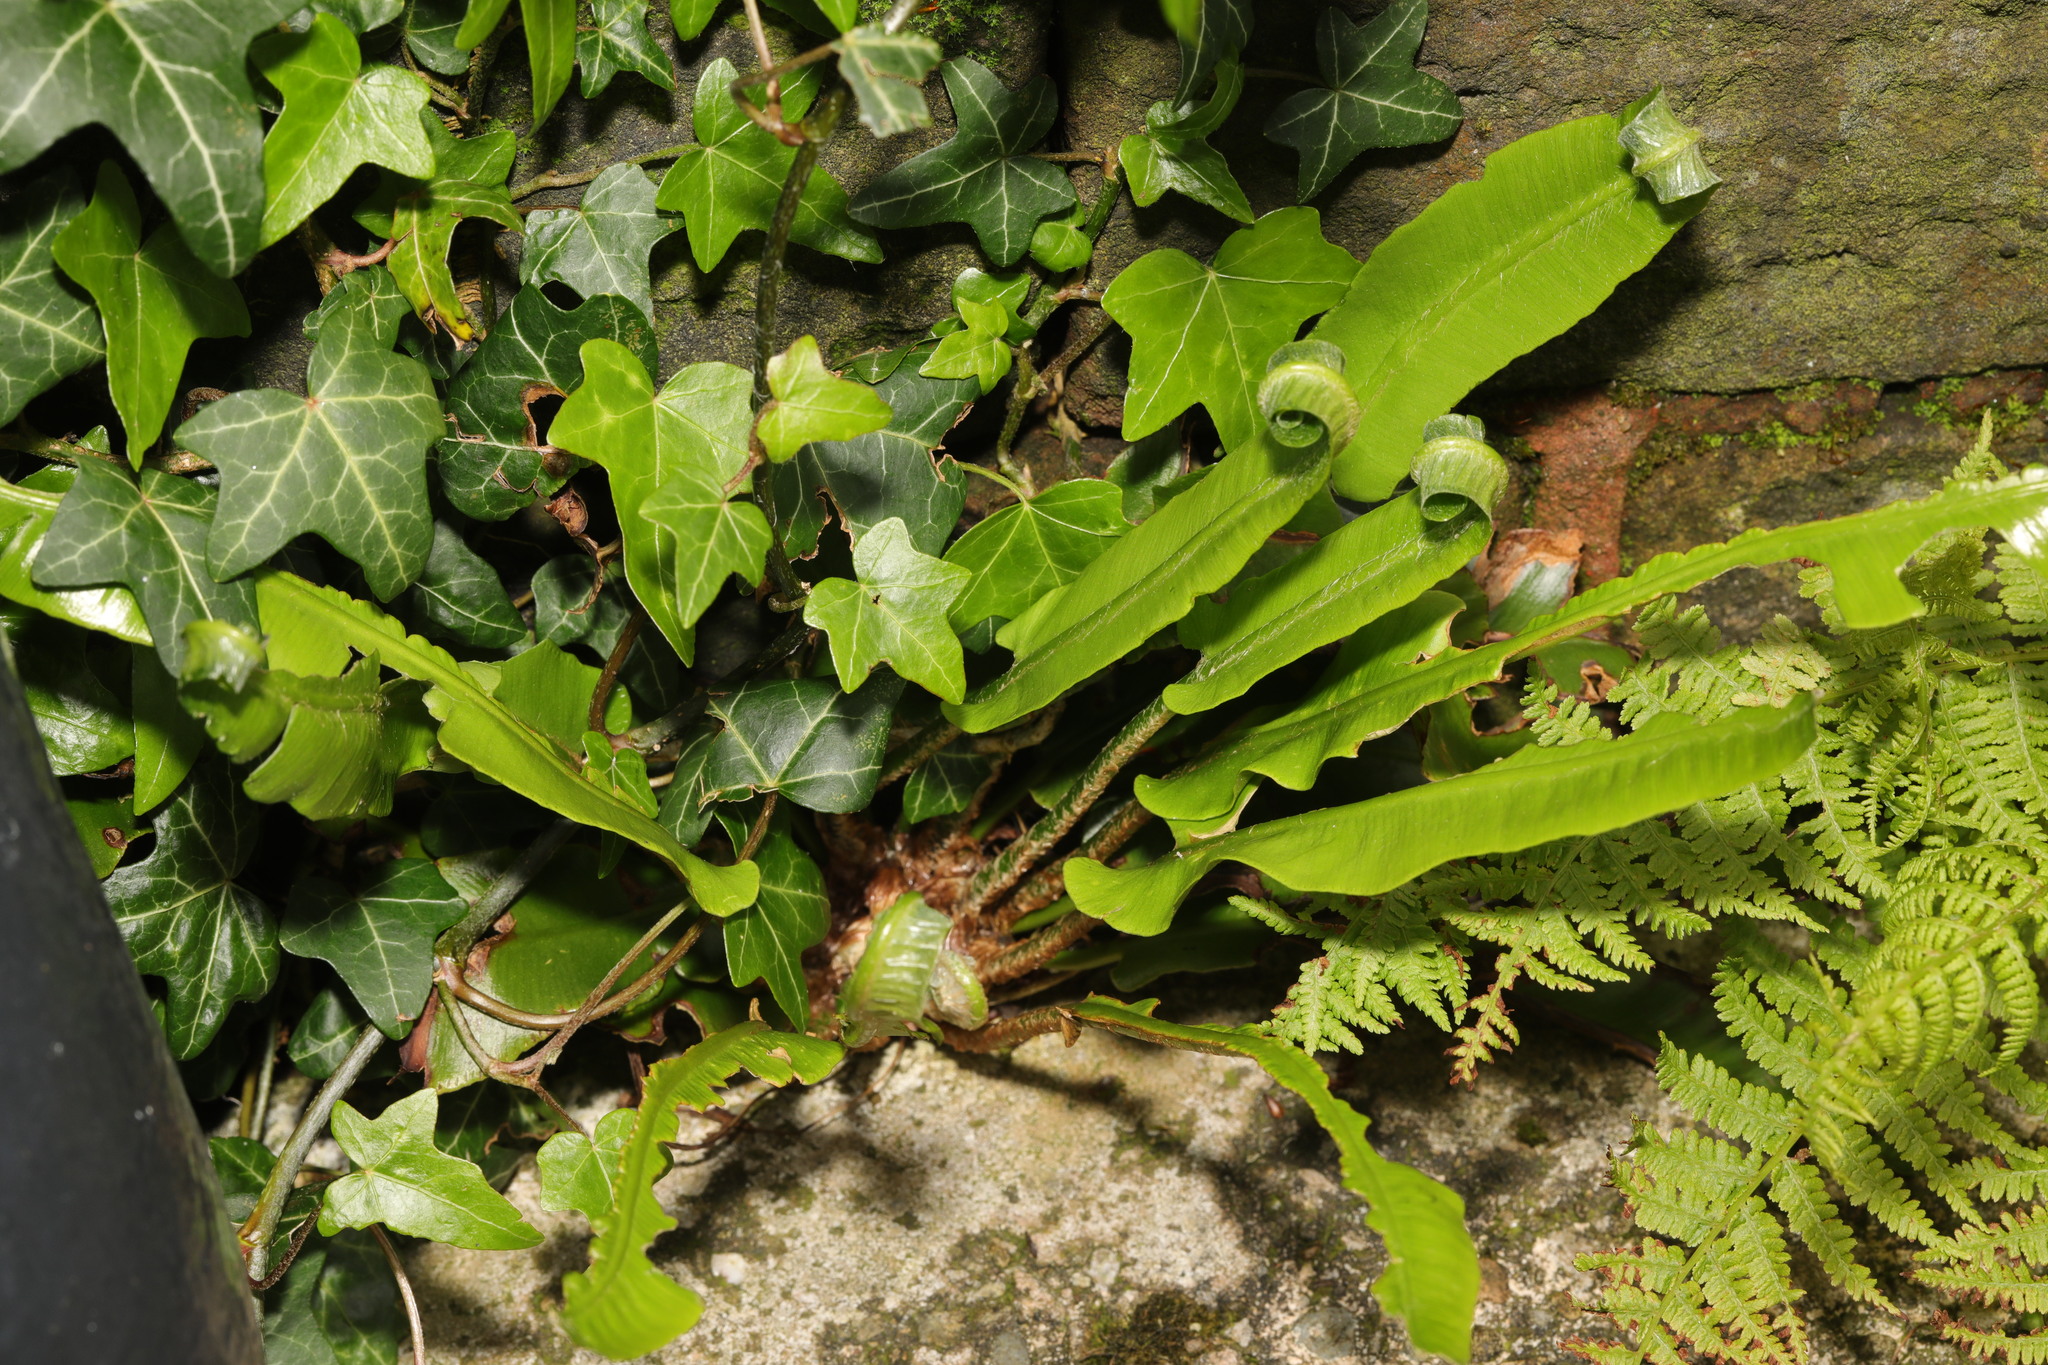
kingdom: Plantae
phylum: Tracheophyta
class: Polypodiopsida
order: Polypodiales
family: Aspleniaceae
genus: Asplenium
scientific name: Asplenium scolopendrium
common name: Hart's-tongue fern
